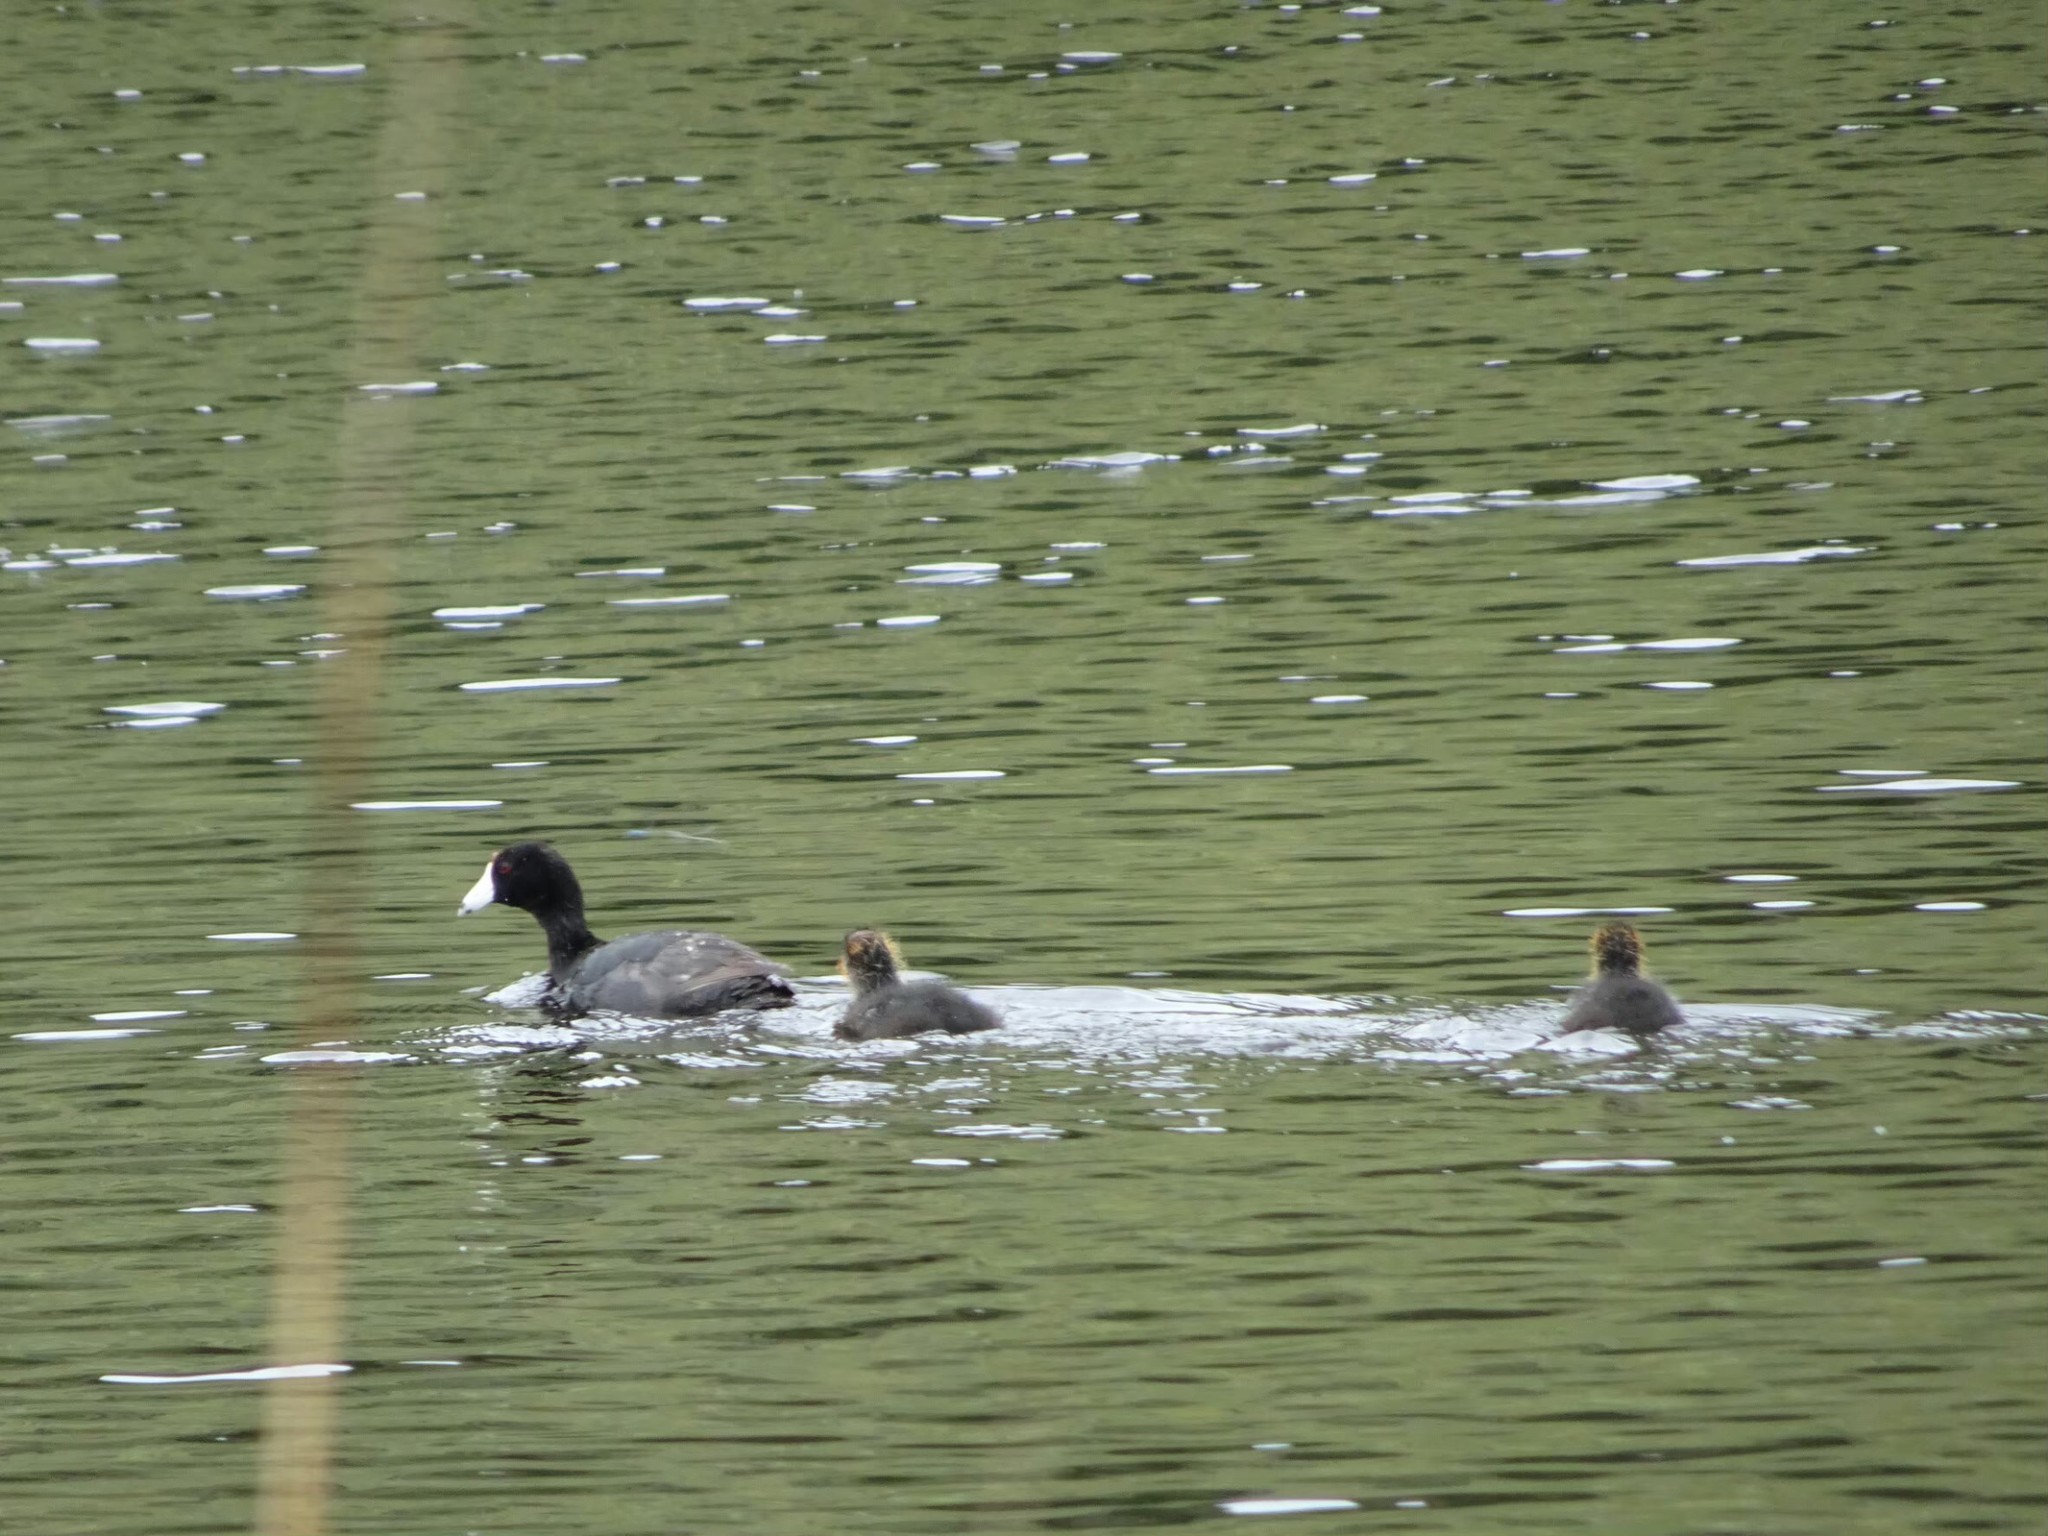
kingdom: Animalia
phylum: Chordata
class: Aves
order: Gruiformes
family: Rallidae
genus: Fulica
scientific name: Fulica americana
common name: American coot
